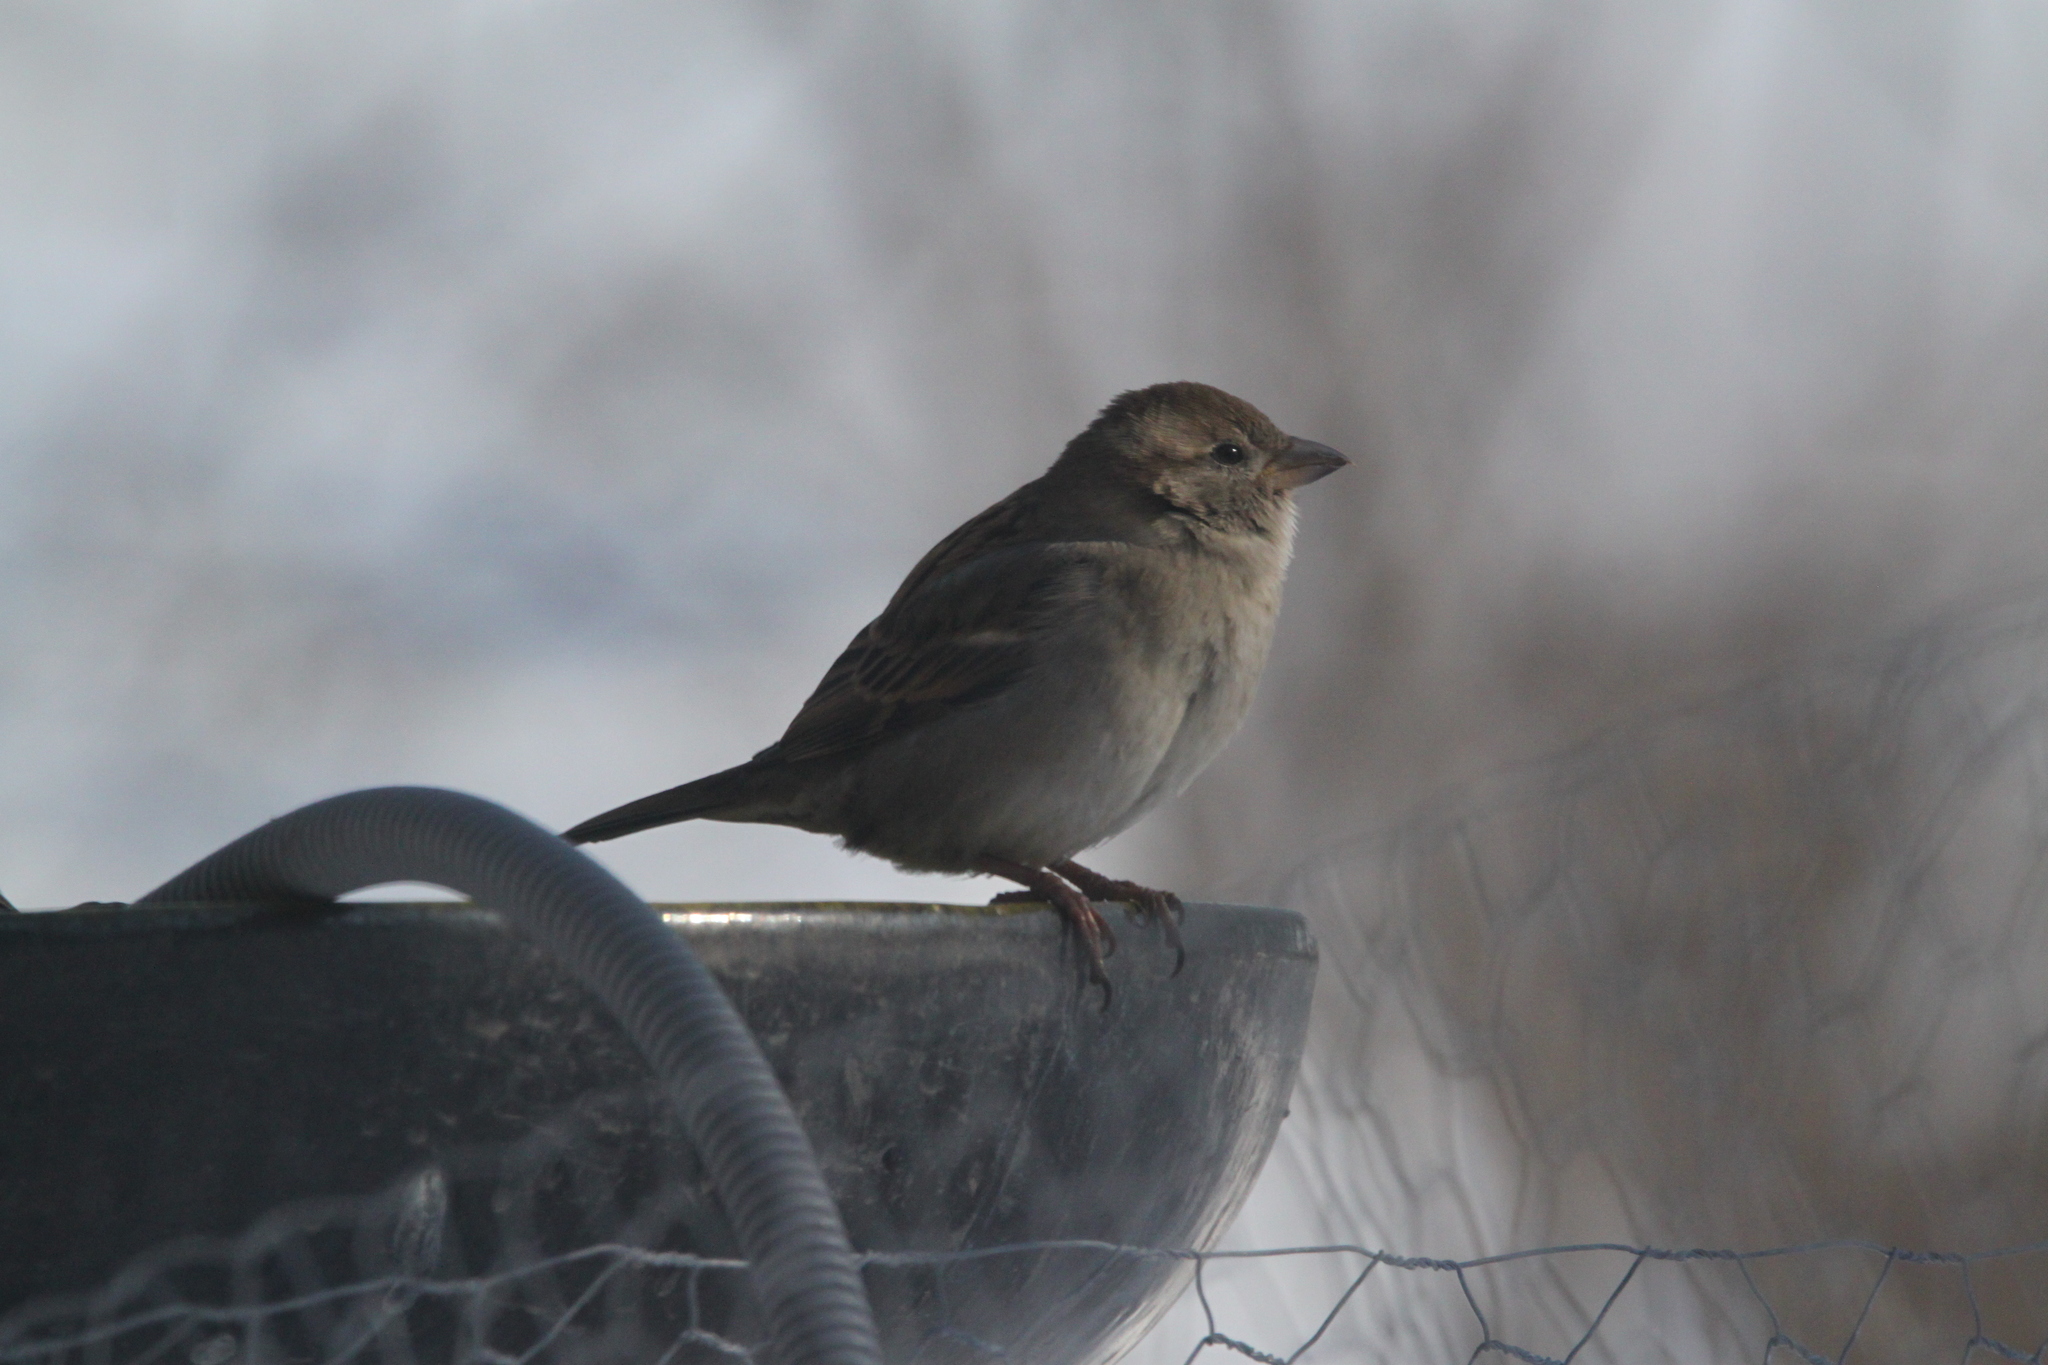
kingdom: Animalia
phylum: Chordata
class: Aves
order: Passeriformes
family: Passeridae
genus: Passer
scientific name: Passer domesticus
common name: House sparrow
